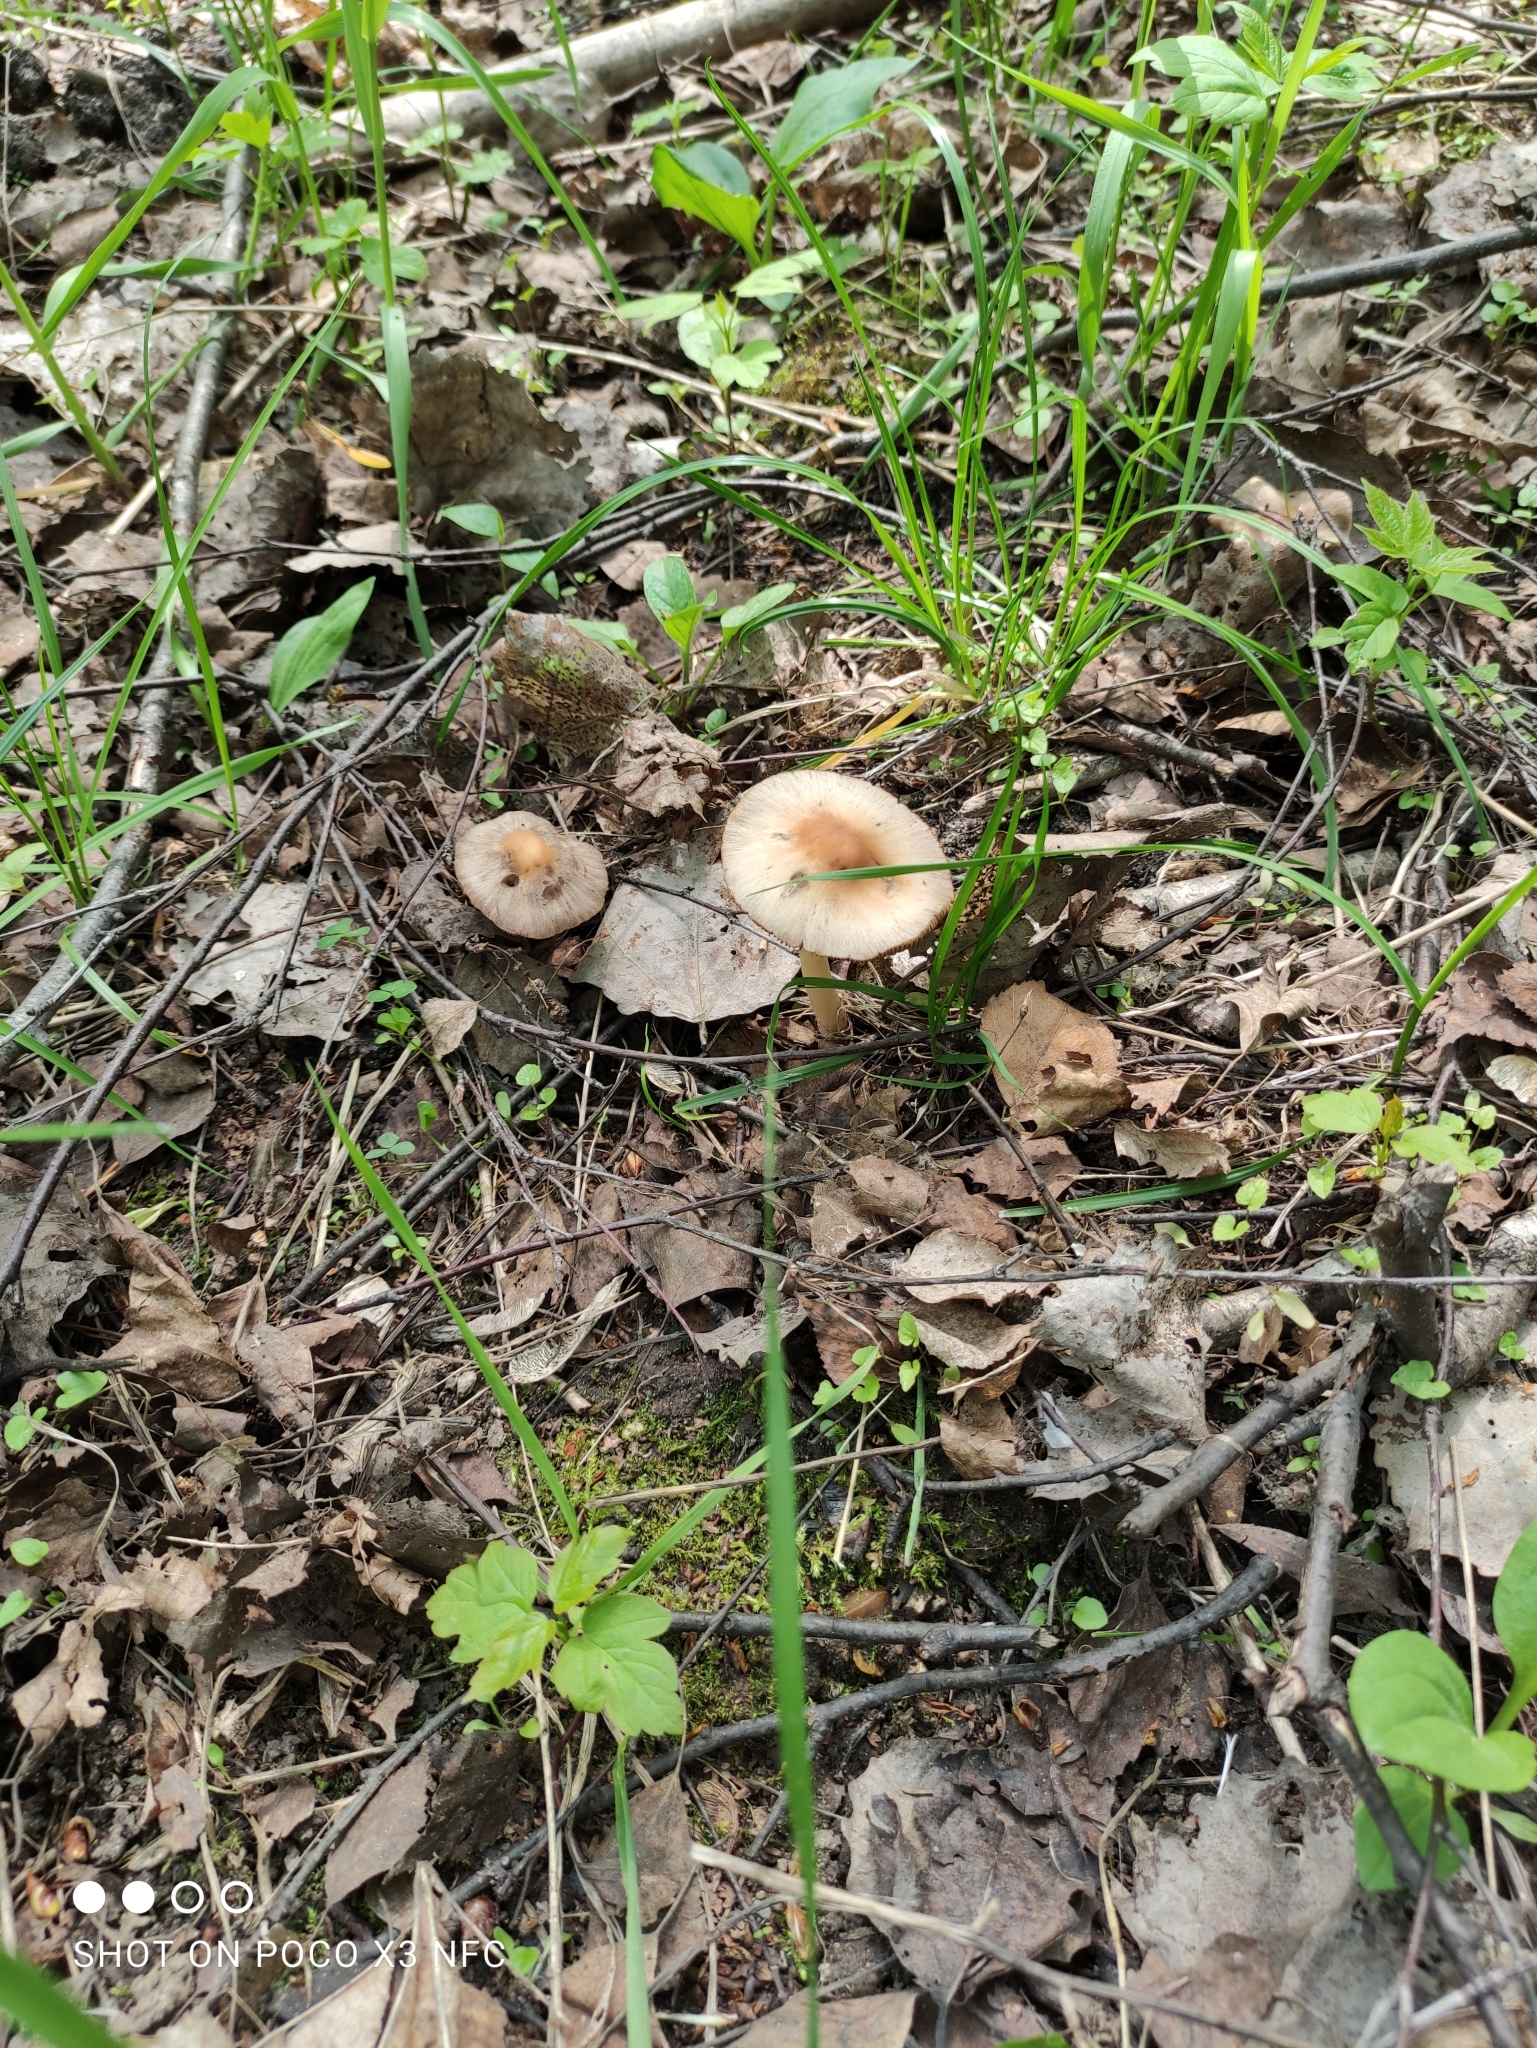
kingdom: Fungi
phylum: Basidiomycota
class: Agaricomycetes
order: Agaricales
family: Psathyrellaceae
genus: Psathyrella
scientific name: Psathyrella spadiceogrisea
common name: Spring brittlestem
